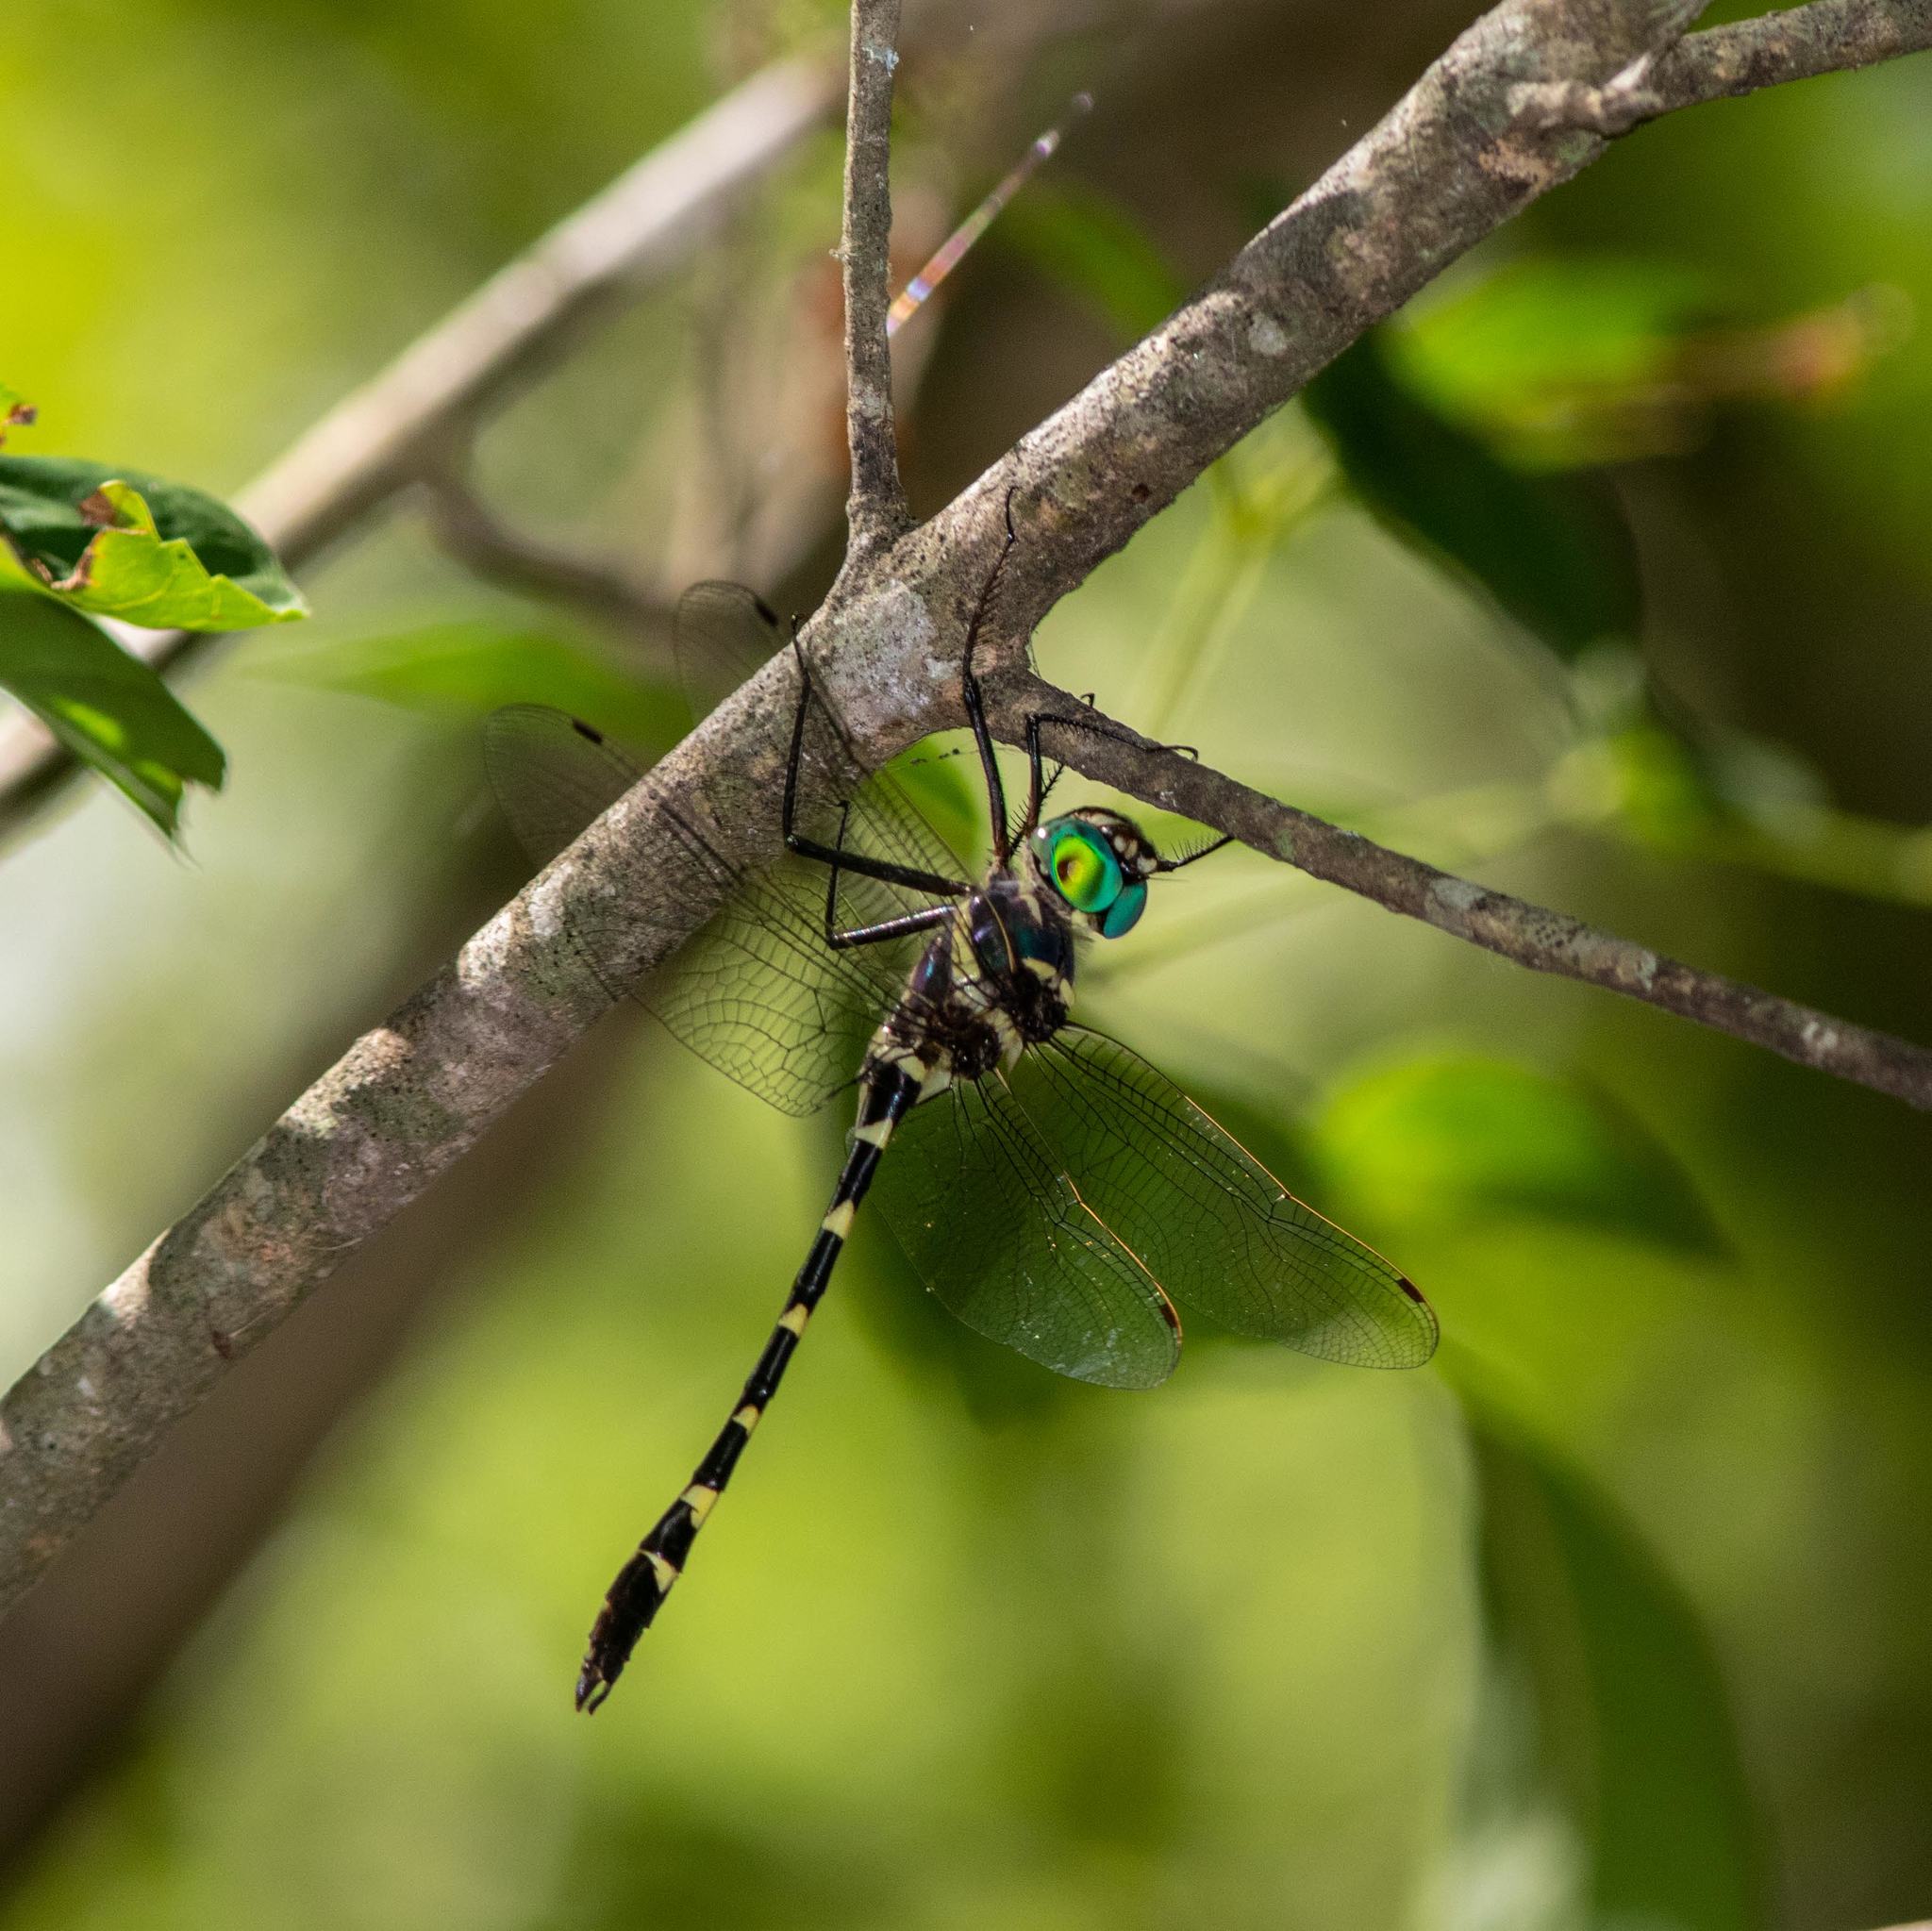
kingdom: Animalia
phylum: Arthropoda
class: Insecta
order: Odonata
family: Macromiidae
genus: Macromia
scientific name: Macromia illinoiensis
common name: Swift river cruiser
